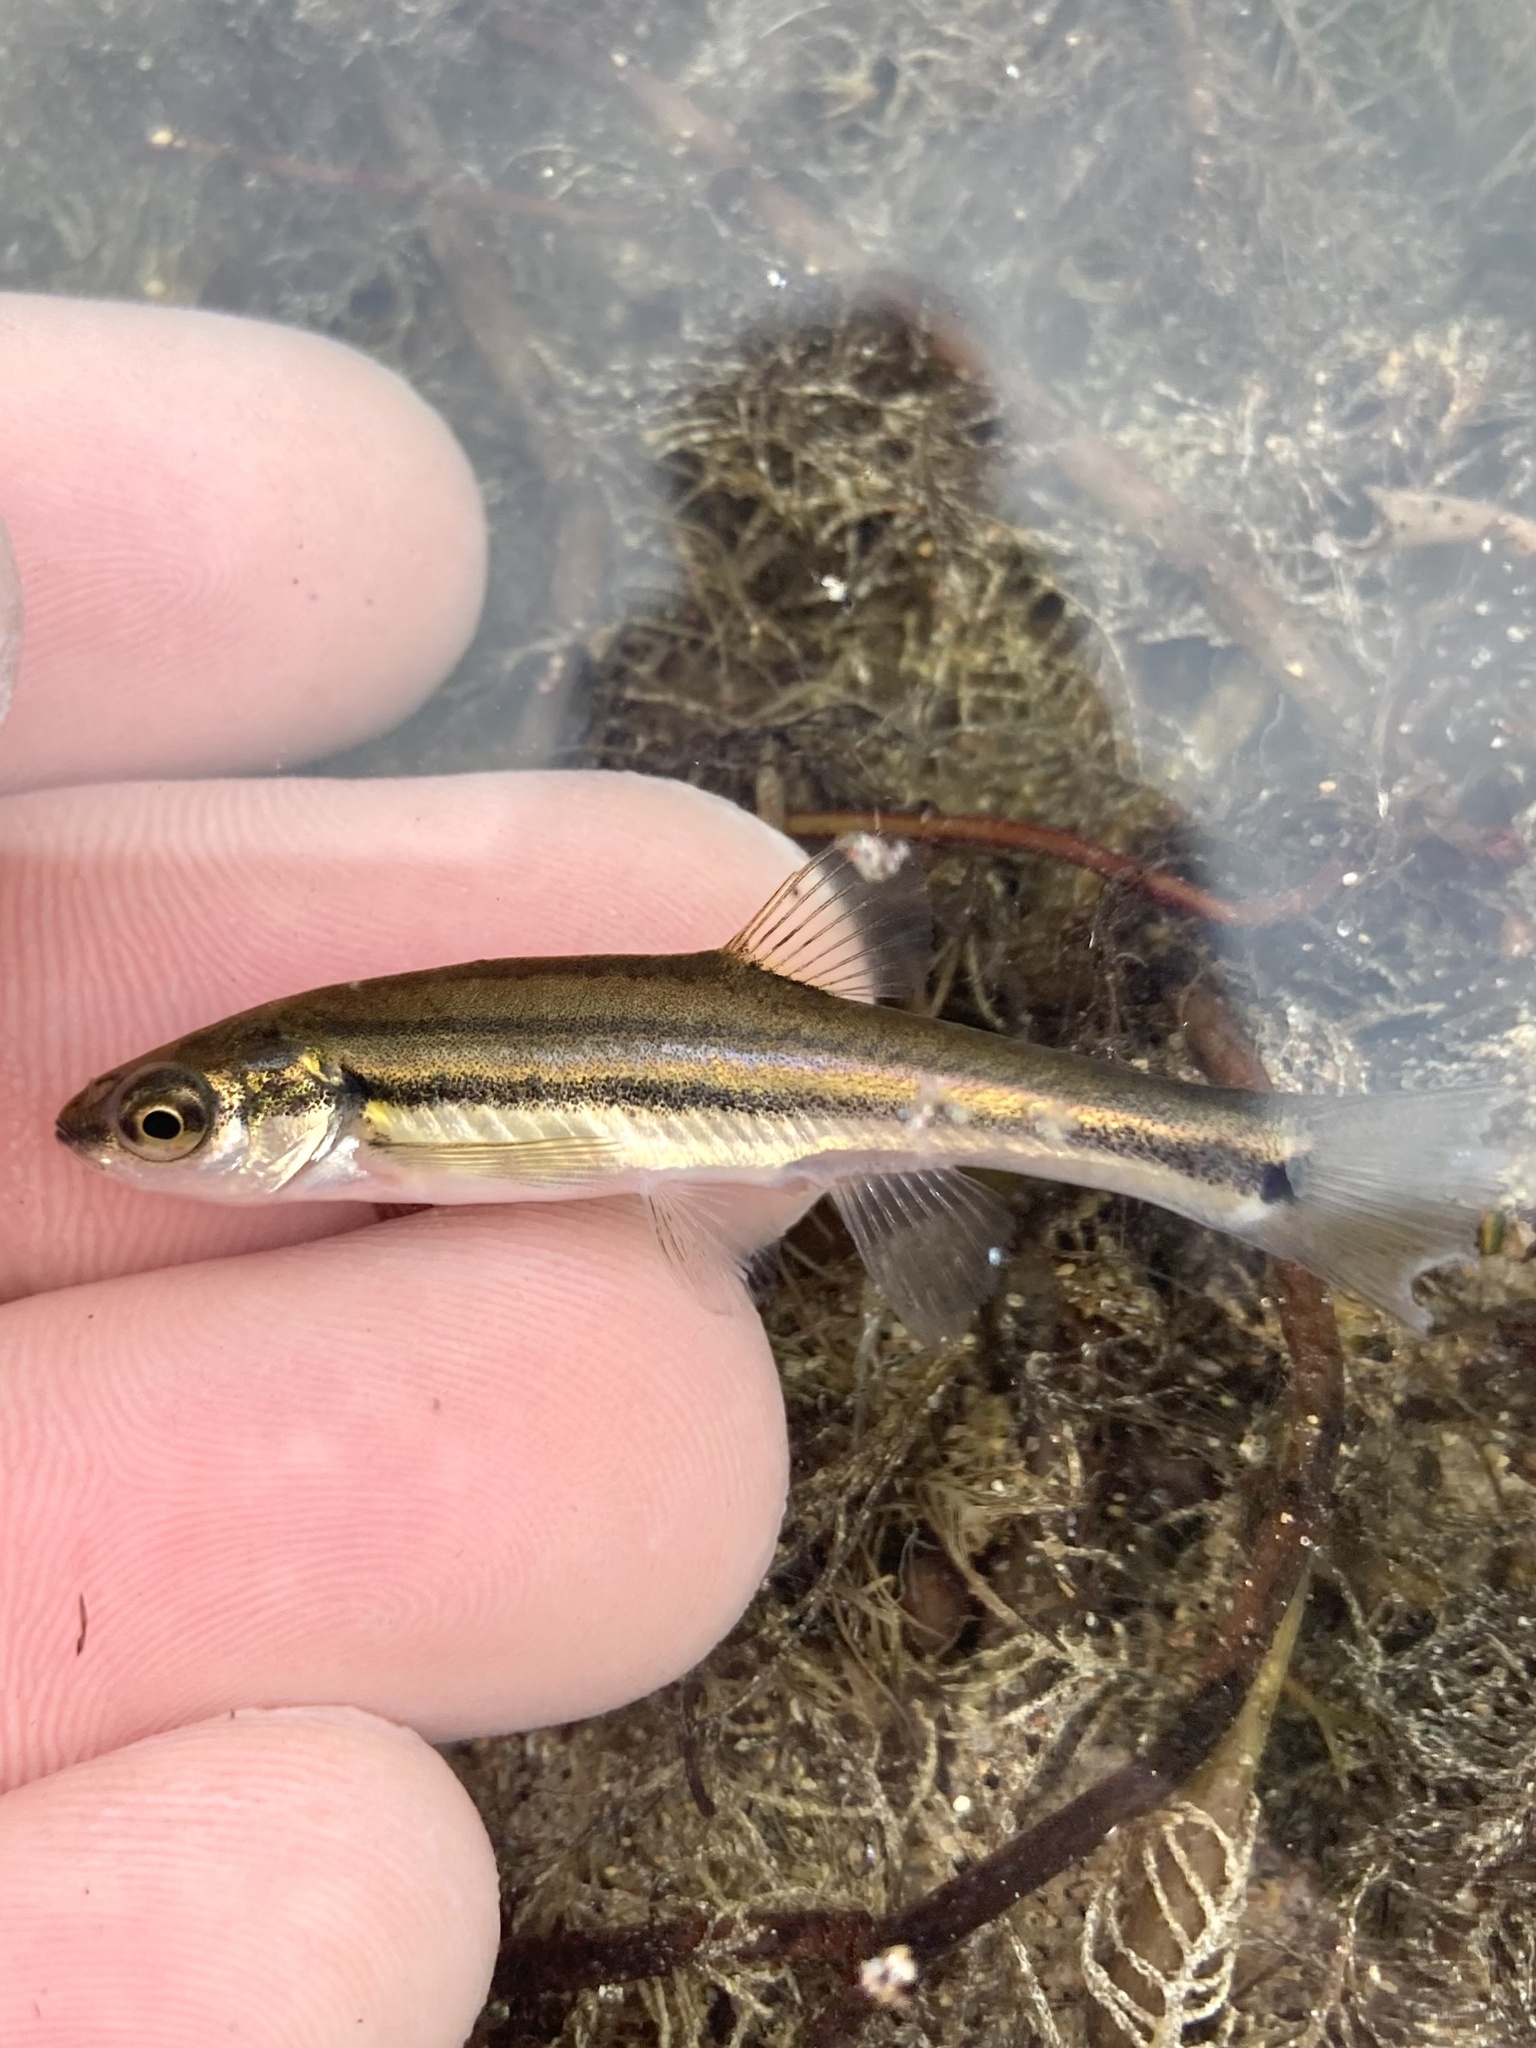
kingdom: Animalia
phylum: Chordata
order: Cypriniformes
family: Cyprinidae
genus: Chrosomus
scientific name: Chrosomus eos
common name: Northern redbelly dace
